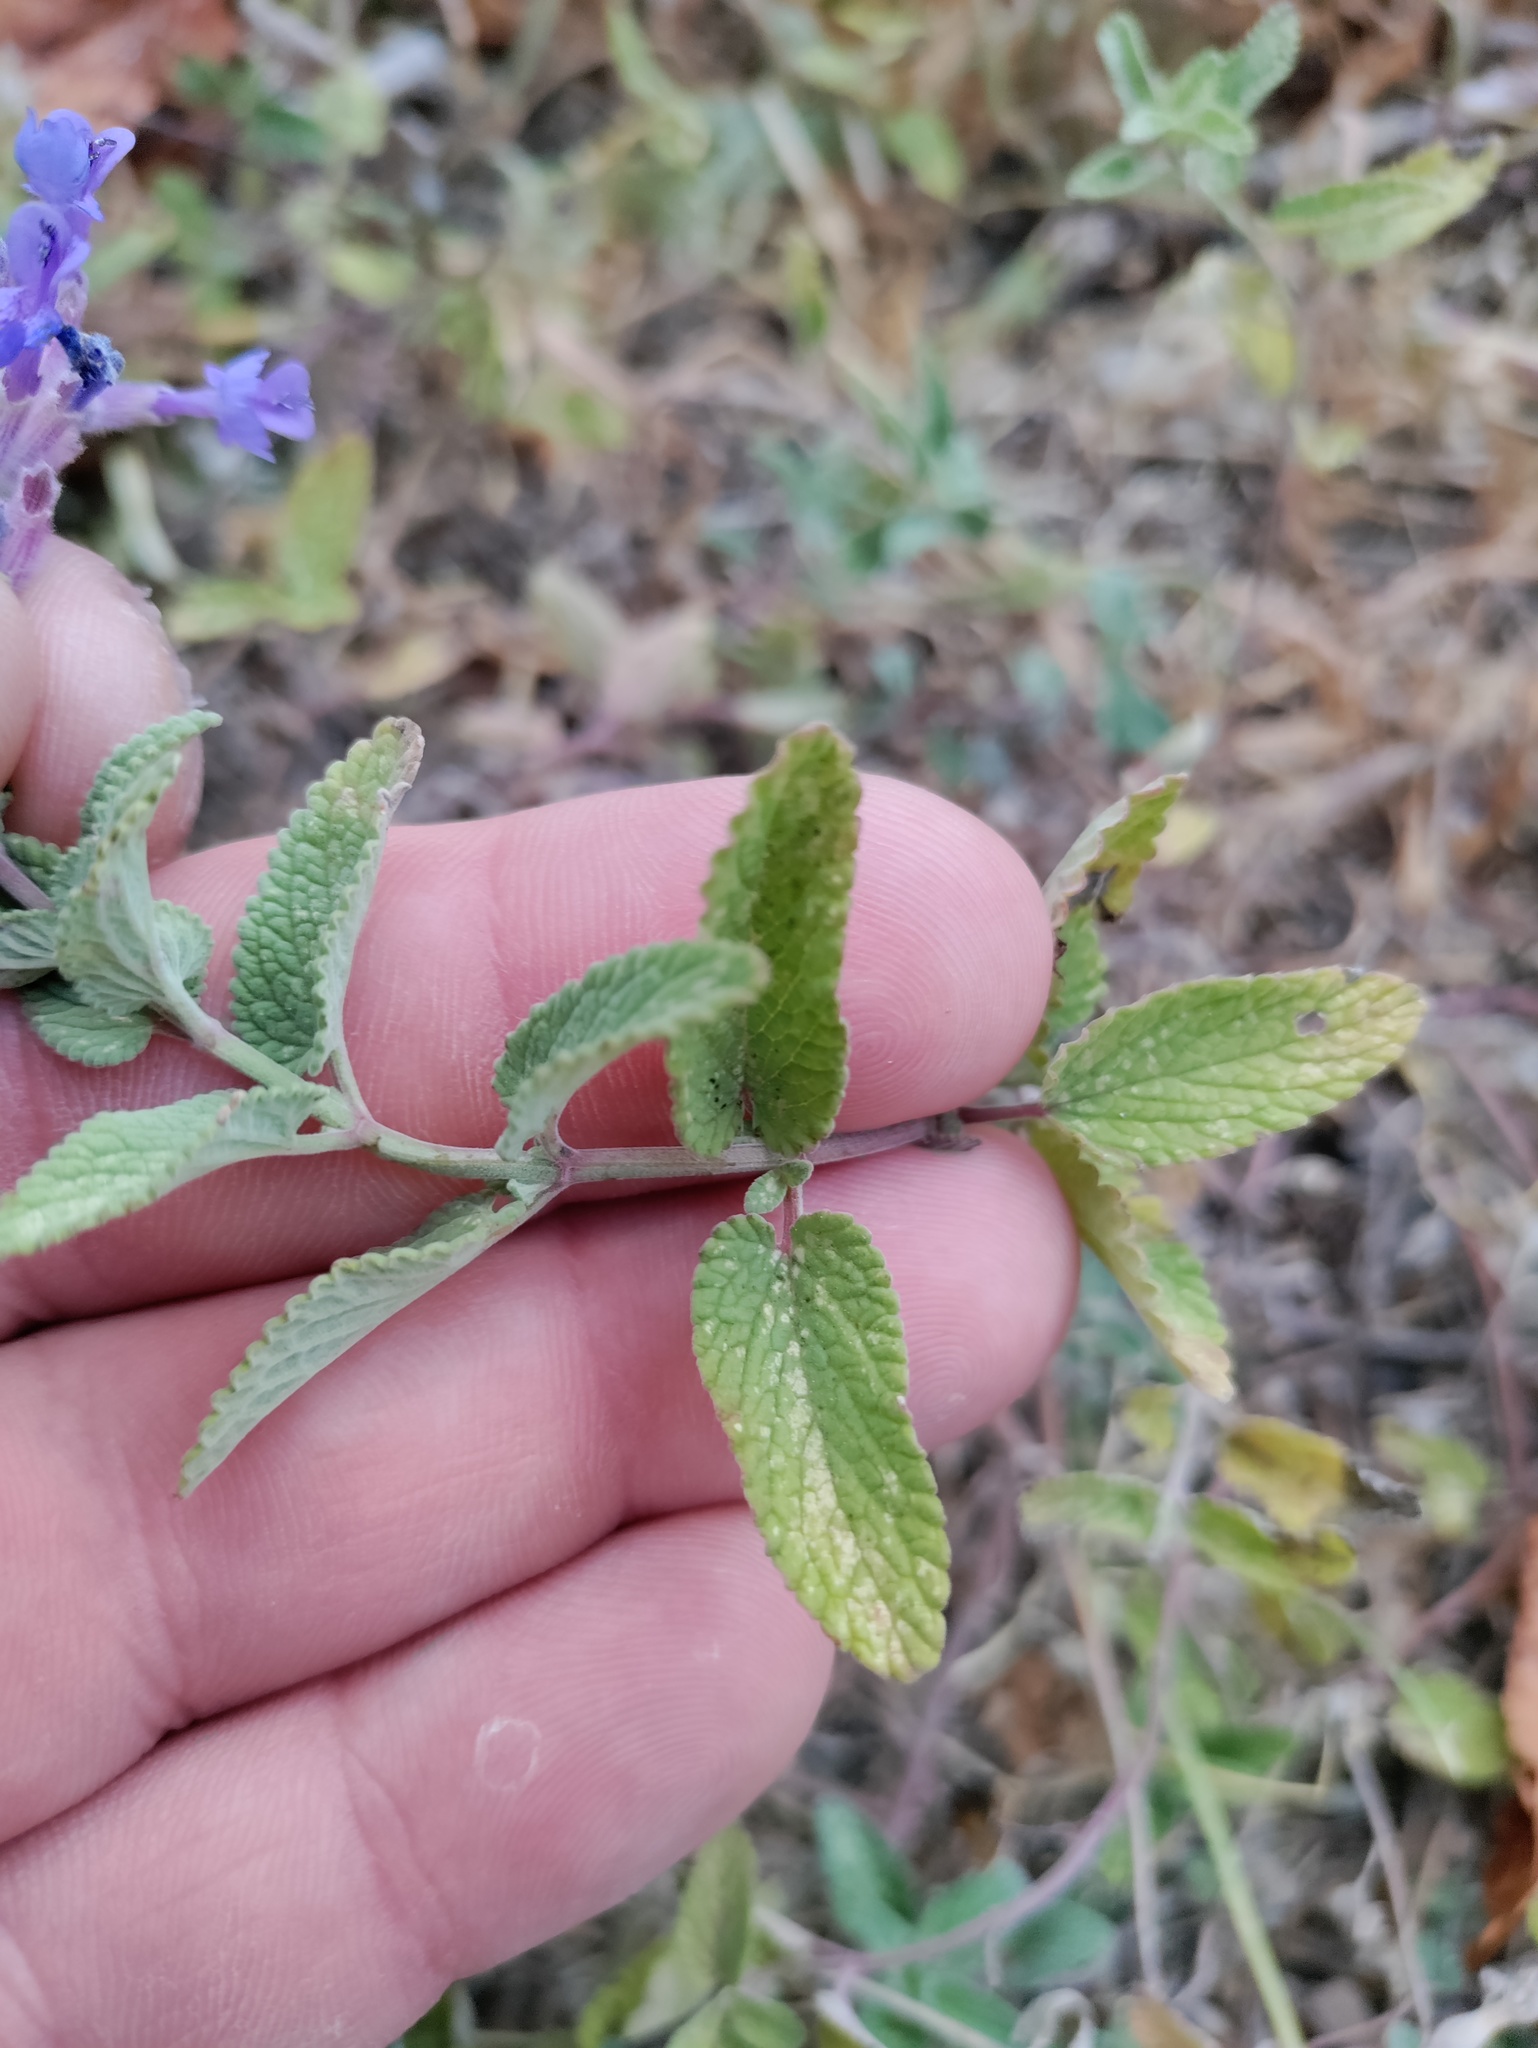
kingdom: Plantae
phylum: Tracheophyta
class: Magnoliopsida
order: Lamiales
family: Lamiaceae
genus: Nepeta
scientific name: Nepeta faassenii
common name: Catmint
